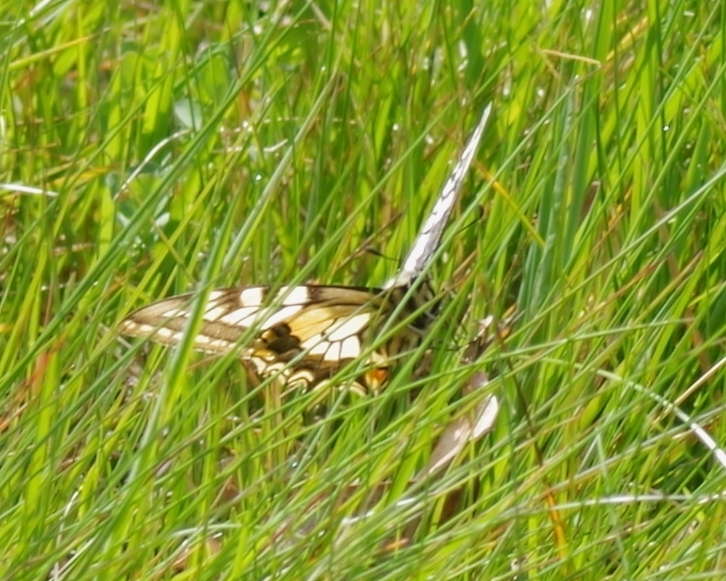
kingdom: Animalia
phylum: Arthropoda
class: Insecta
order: Lepidoptera
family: Papilionidae
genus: Papilio
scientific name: Papilio machaon
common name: Swallowtail
